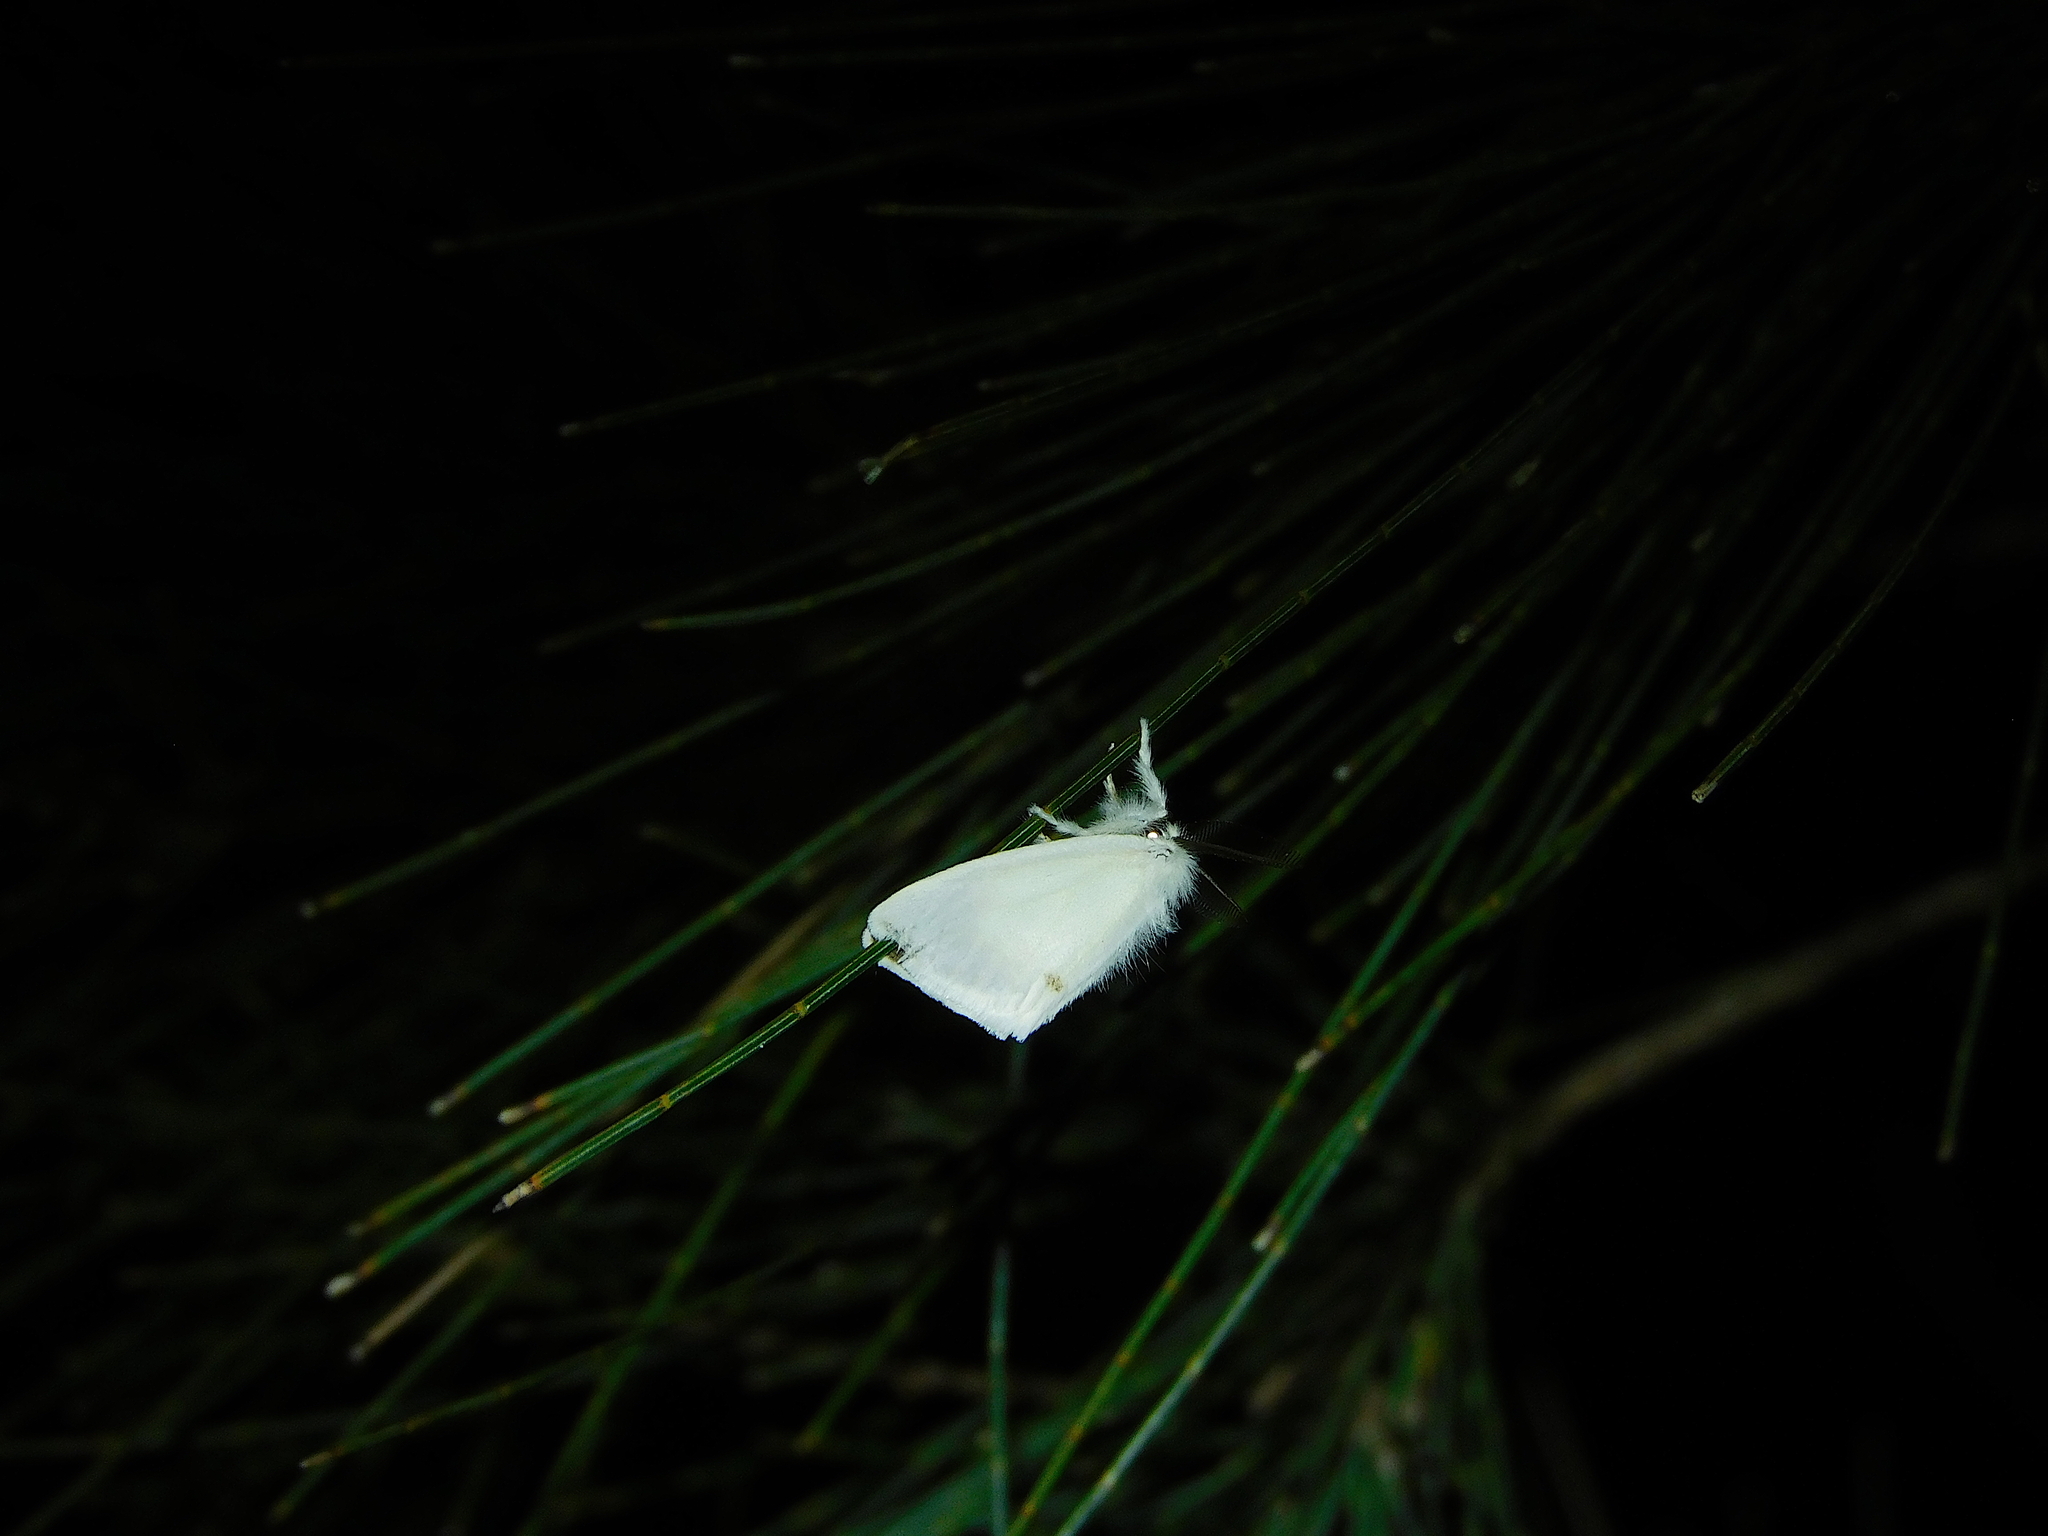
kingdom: Animalia
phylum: Arthropoda
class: Insecta
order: Lepidoptera
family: Erebidae
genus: Acyphas
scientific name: Acyphas semiochrea
